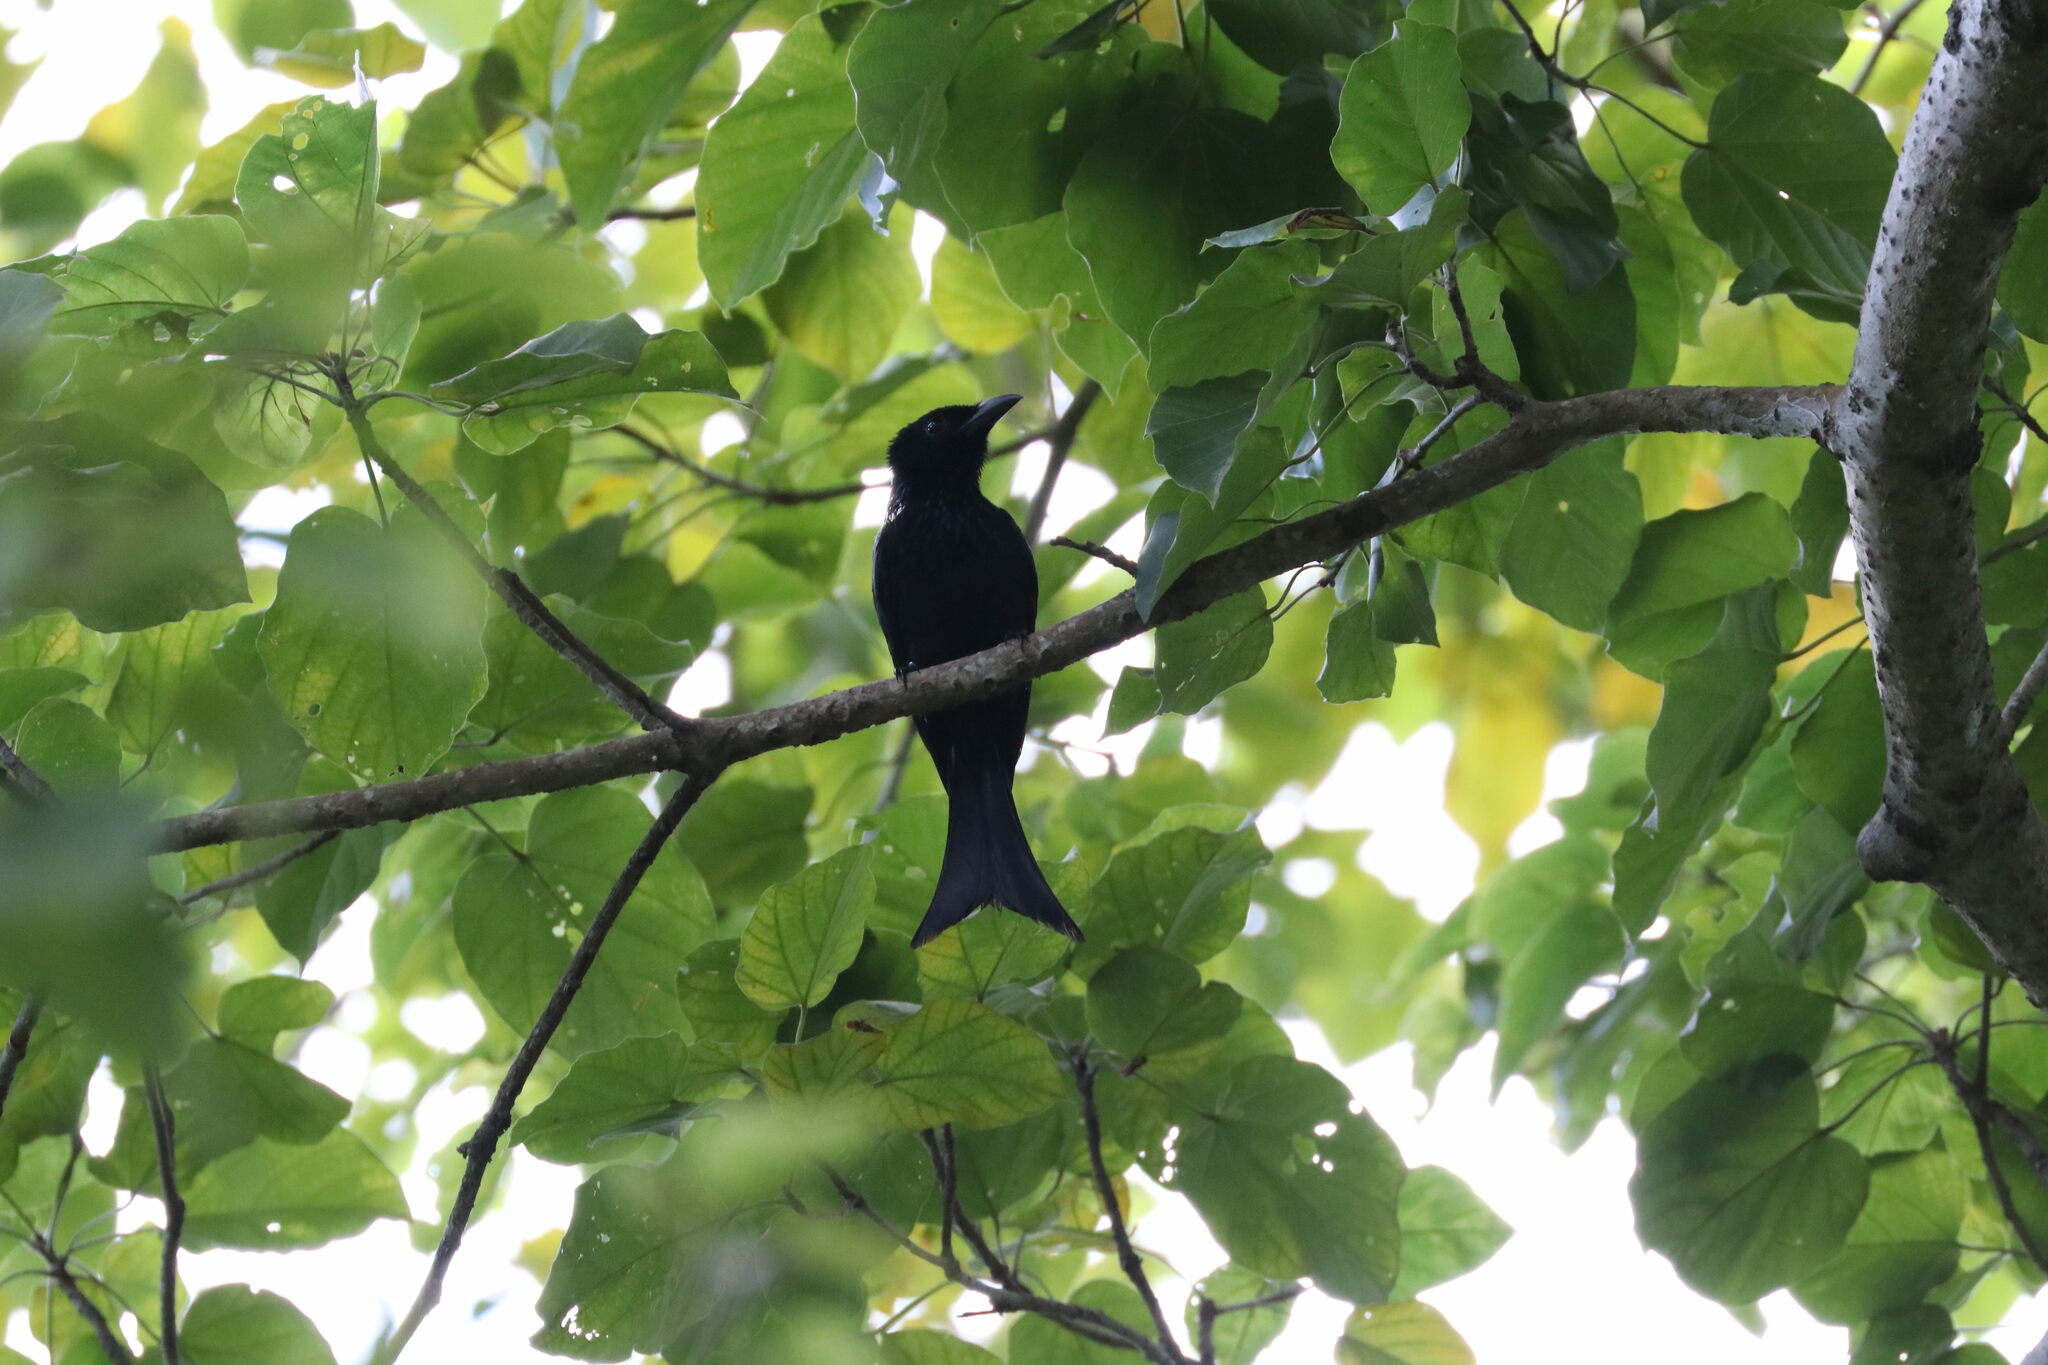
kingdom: Animalia
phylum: Chordata
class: Aves
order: Passeriformes
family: Dicruridae
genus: Dicrurus
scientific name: Dicrurus palawanensis
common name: Palawan drongo
